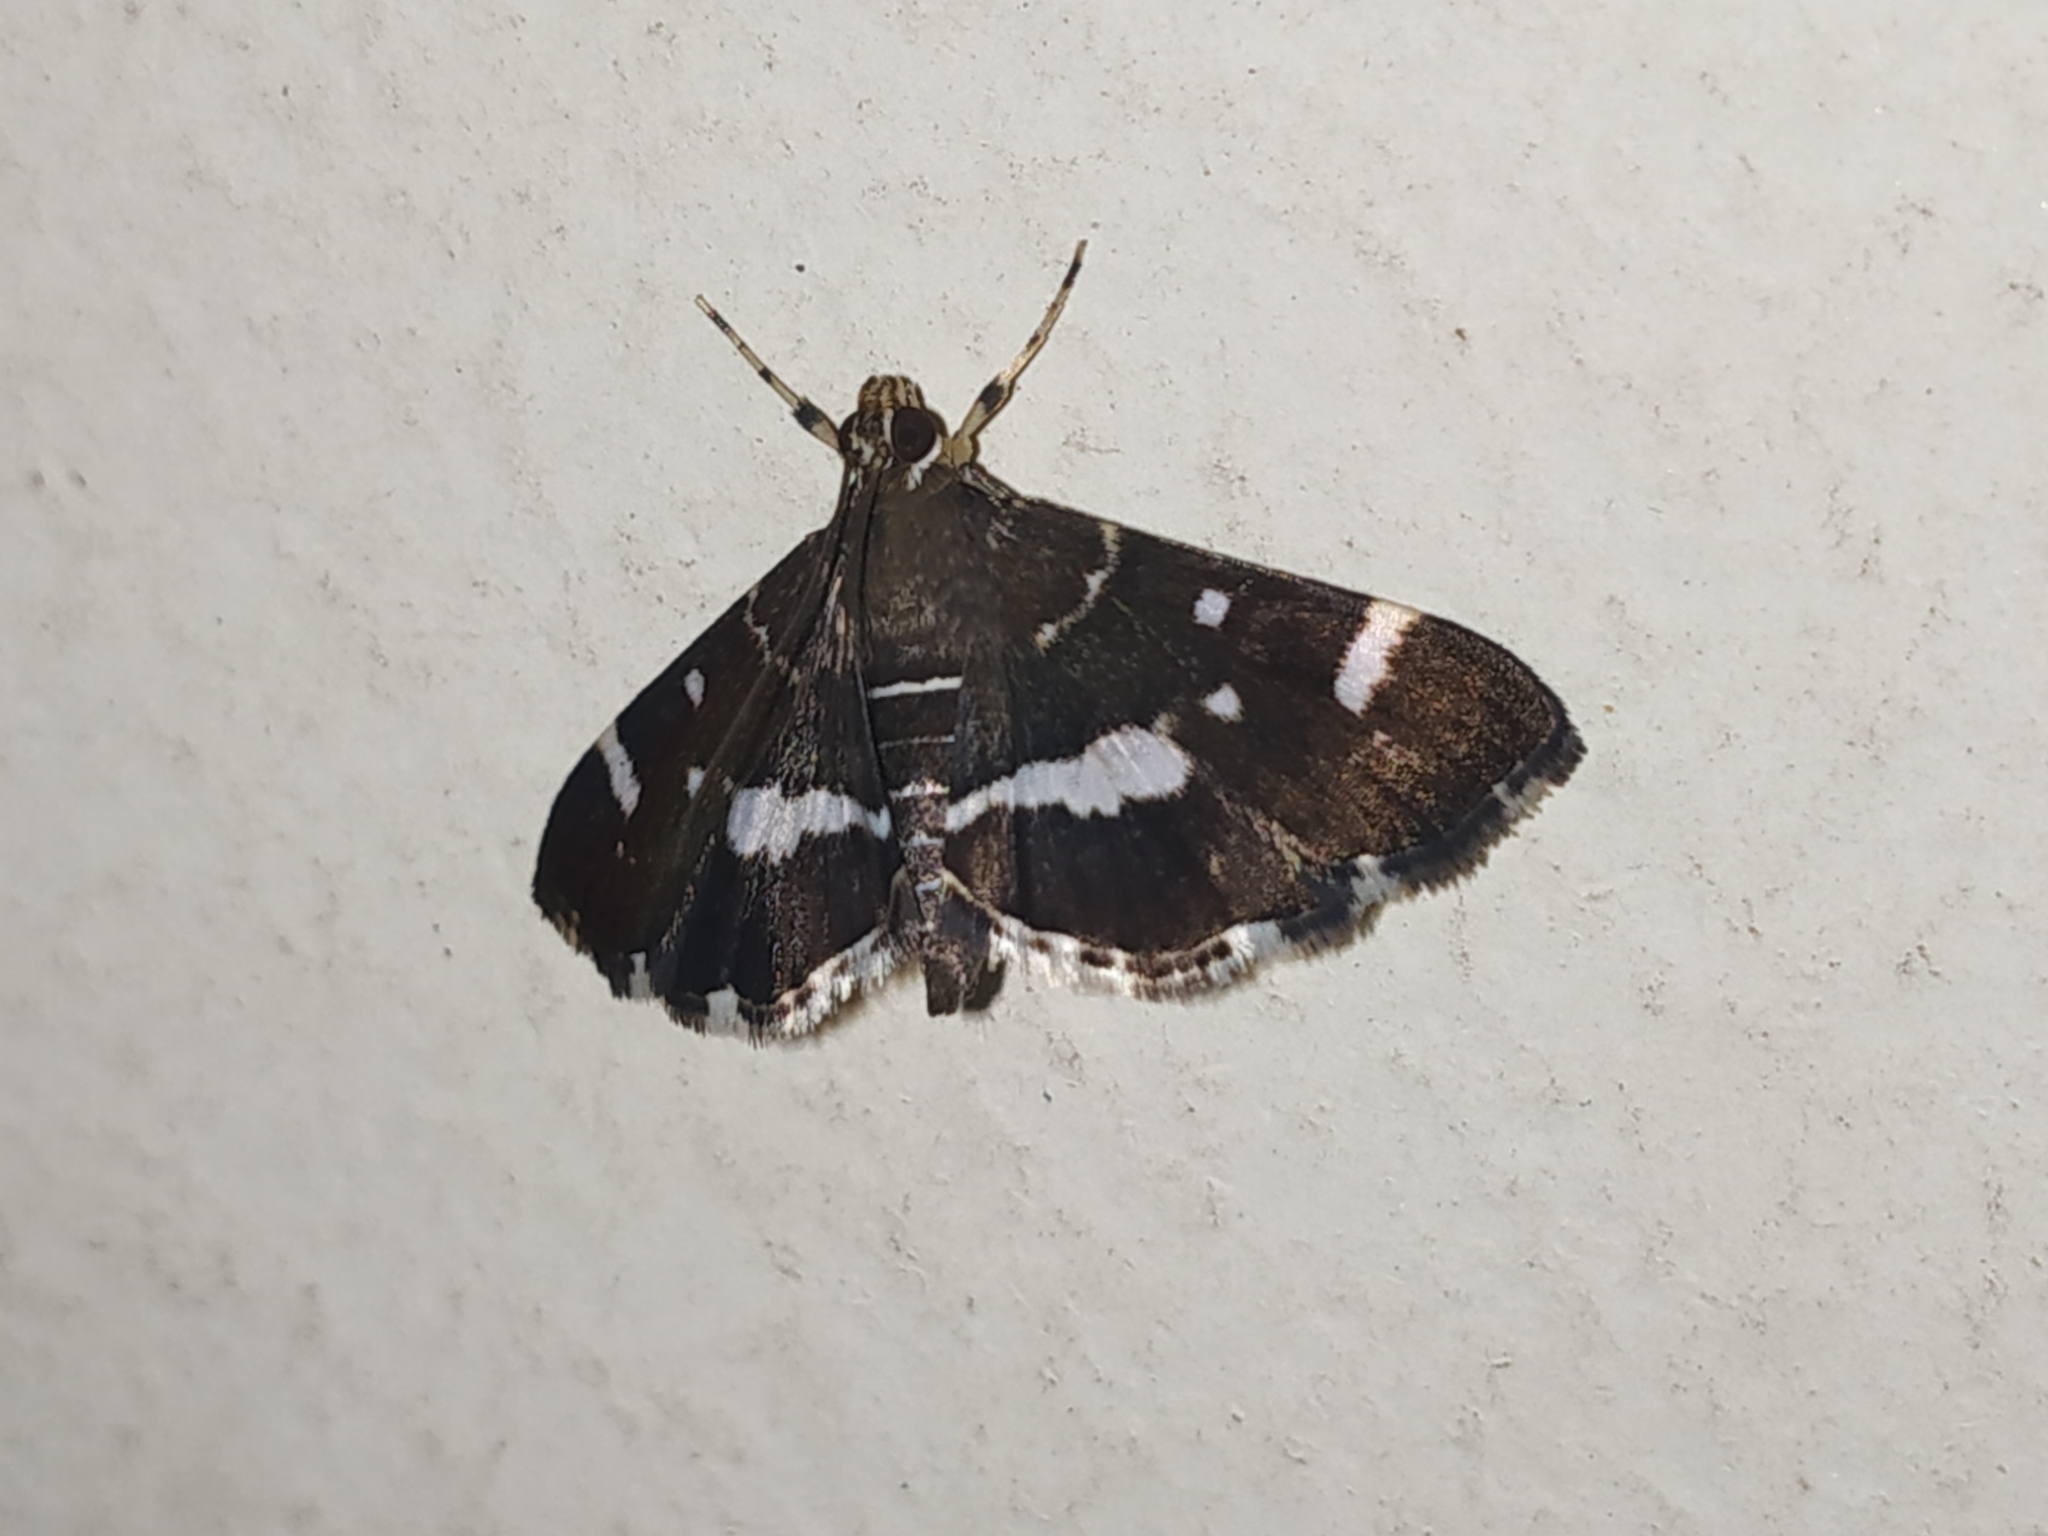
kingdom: Animalia
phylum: Arthropoda
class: Insecta
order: Lepidoptera
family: Crambidae
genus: Hymenia
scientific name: Hymenia perspectalis
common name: Spotted beet webworm
